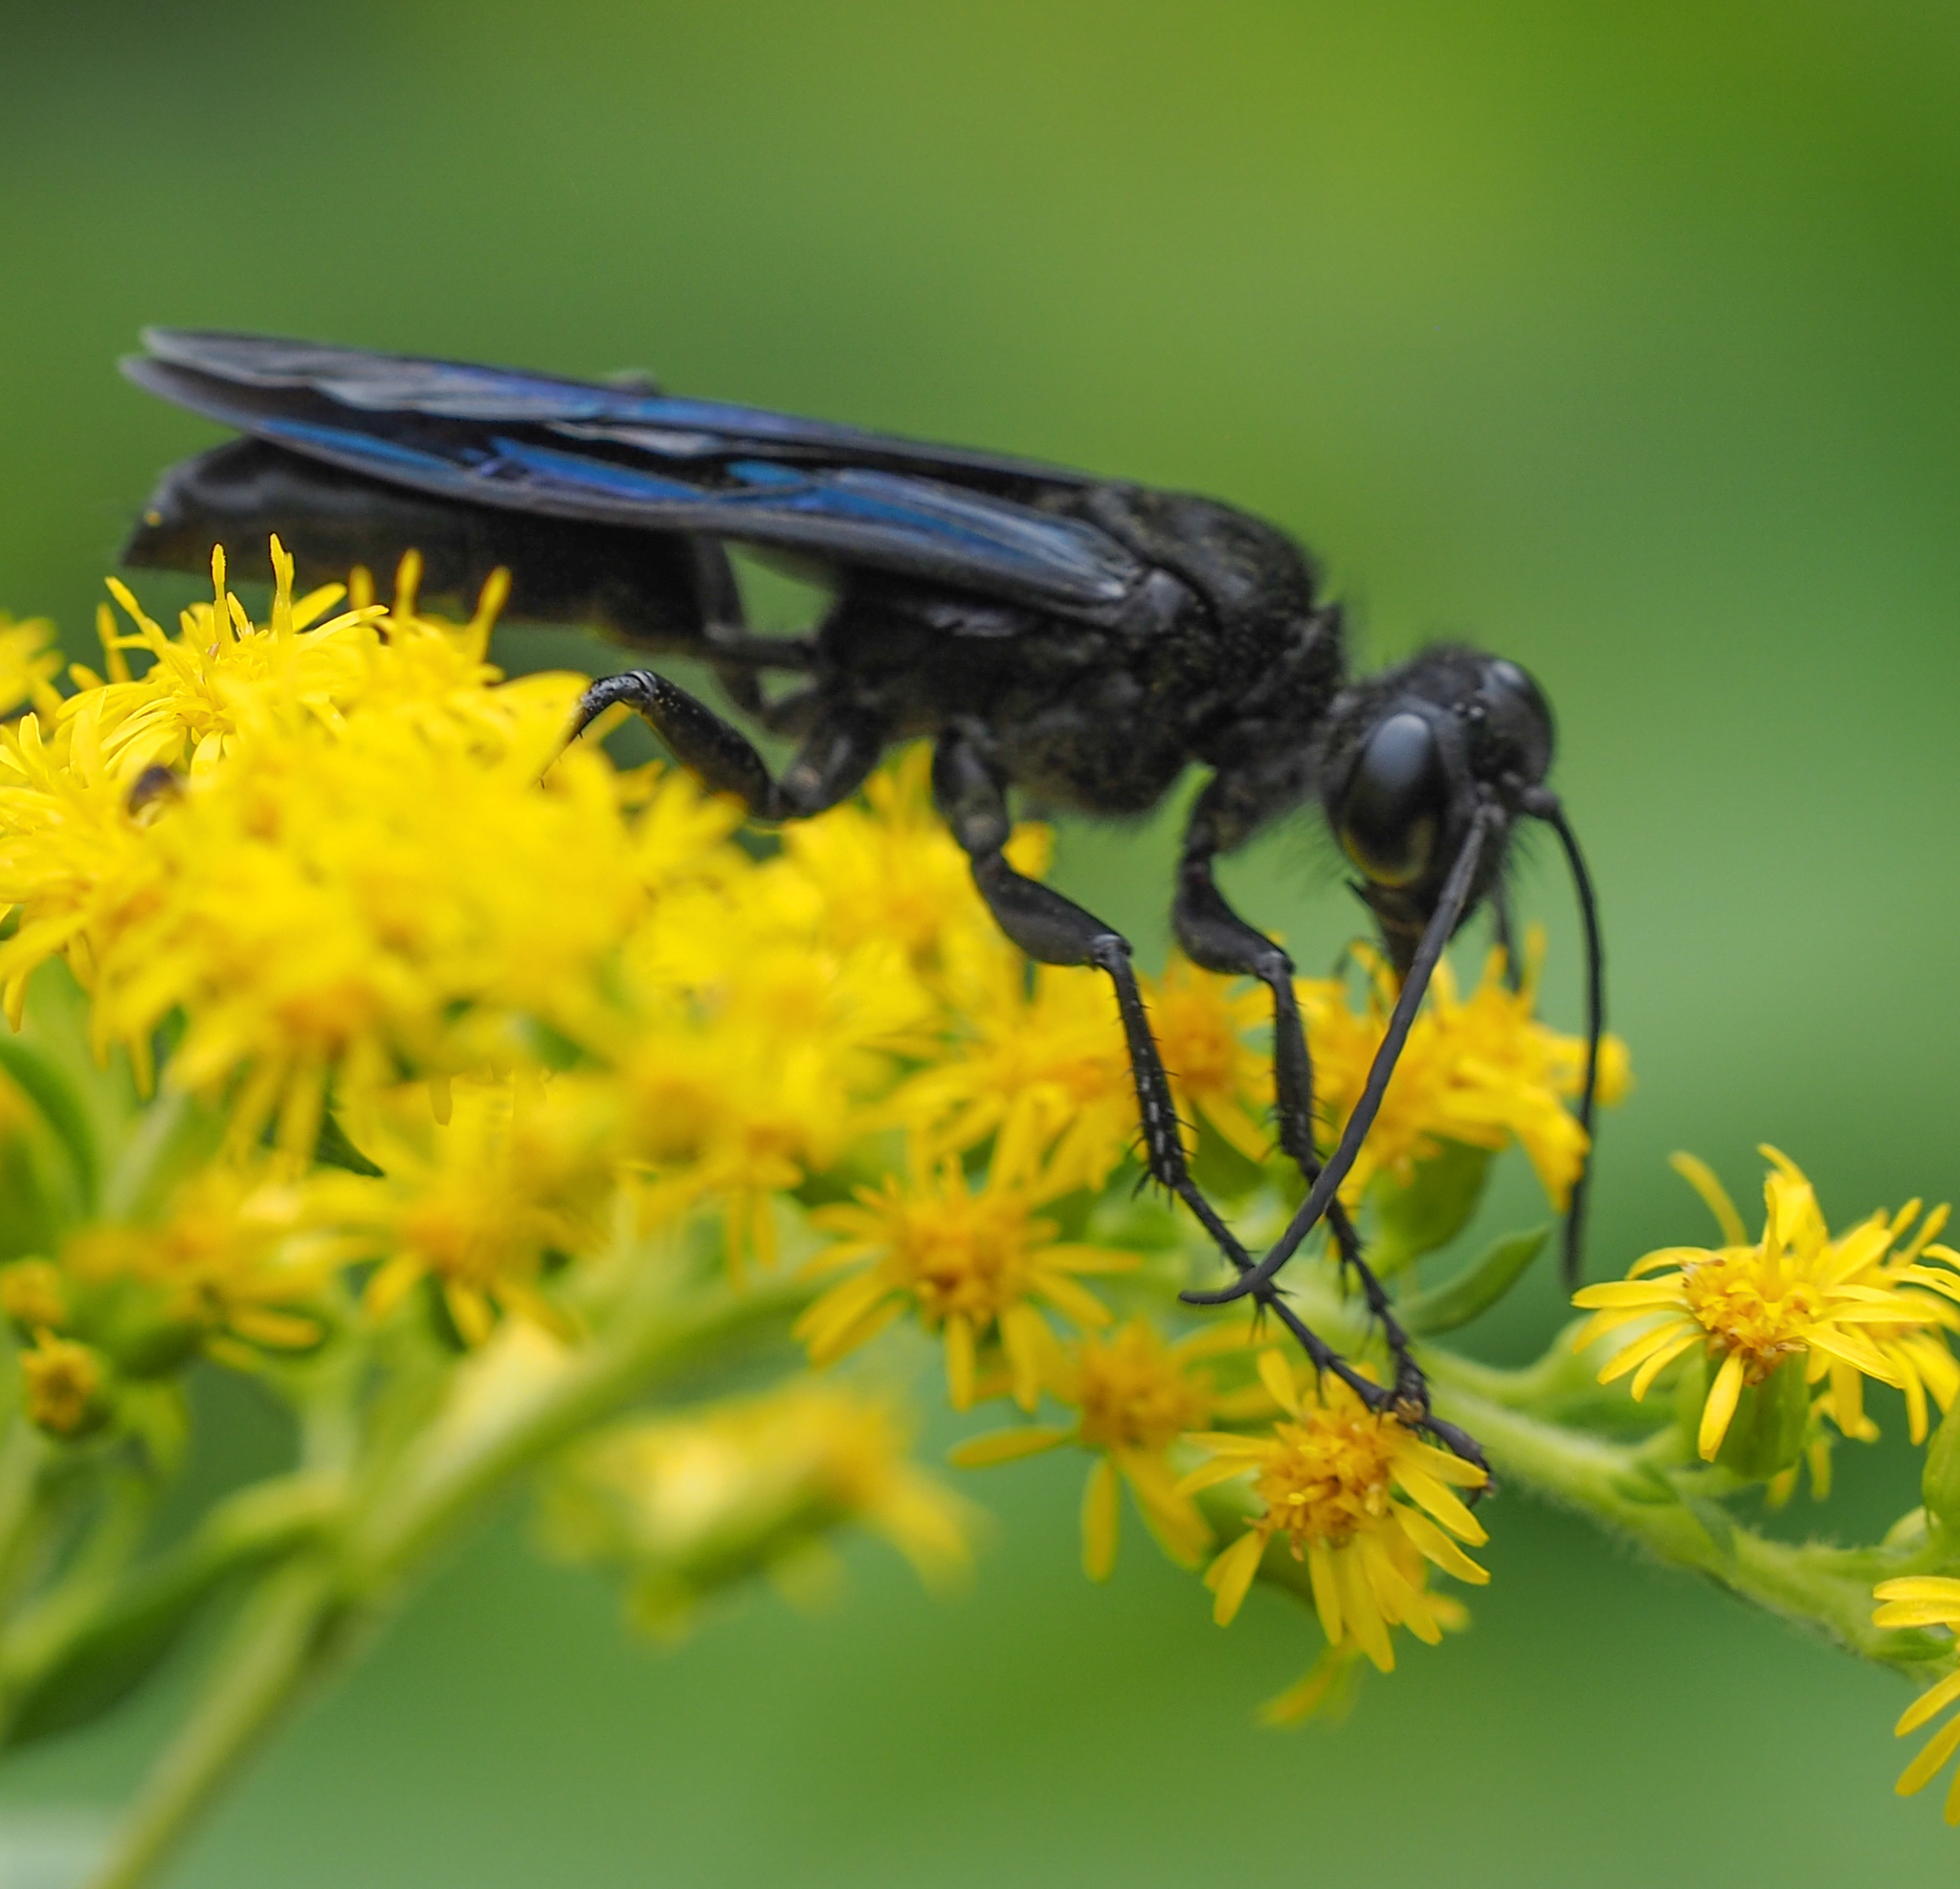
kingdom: Animalia
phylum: Arthropoda
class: Insecta
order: Hymenoptera
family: Sphecidae
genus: Sphex
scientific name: Sphex pensylvanicus
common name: Great black digger wasp
